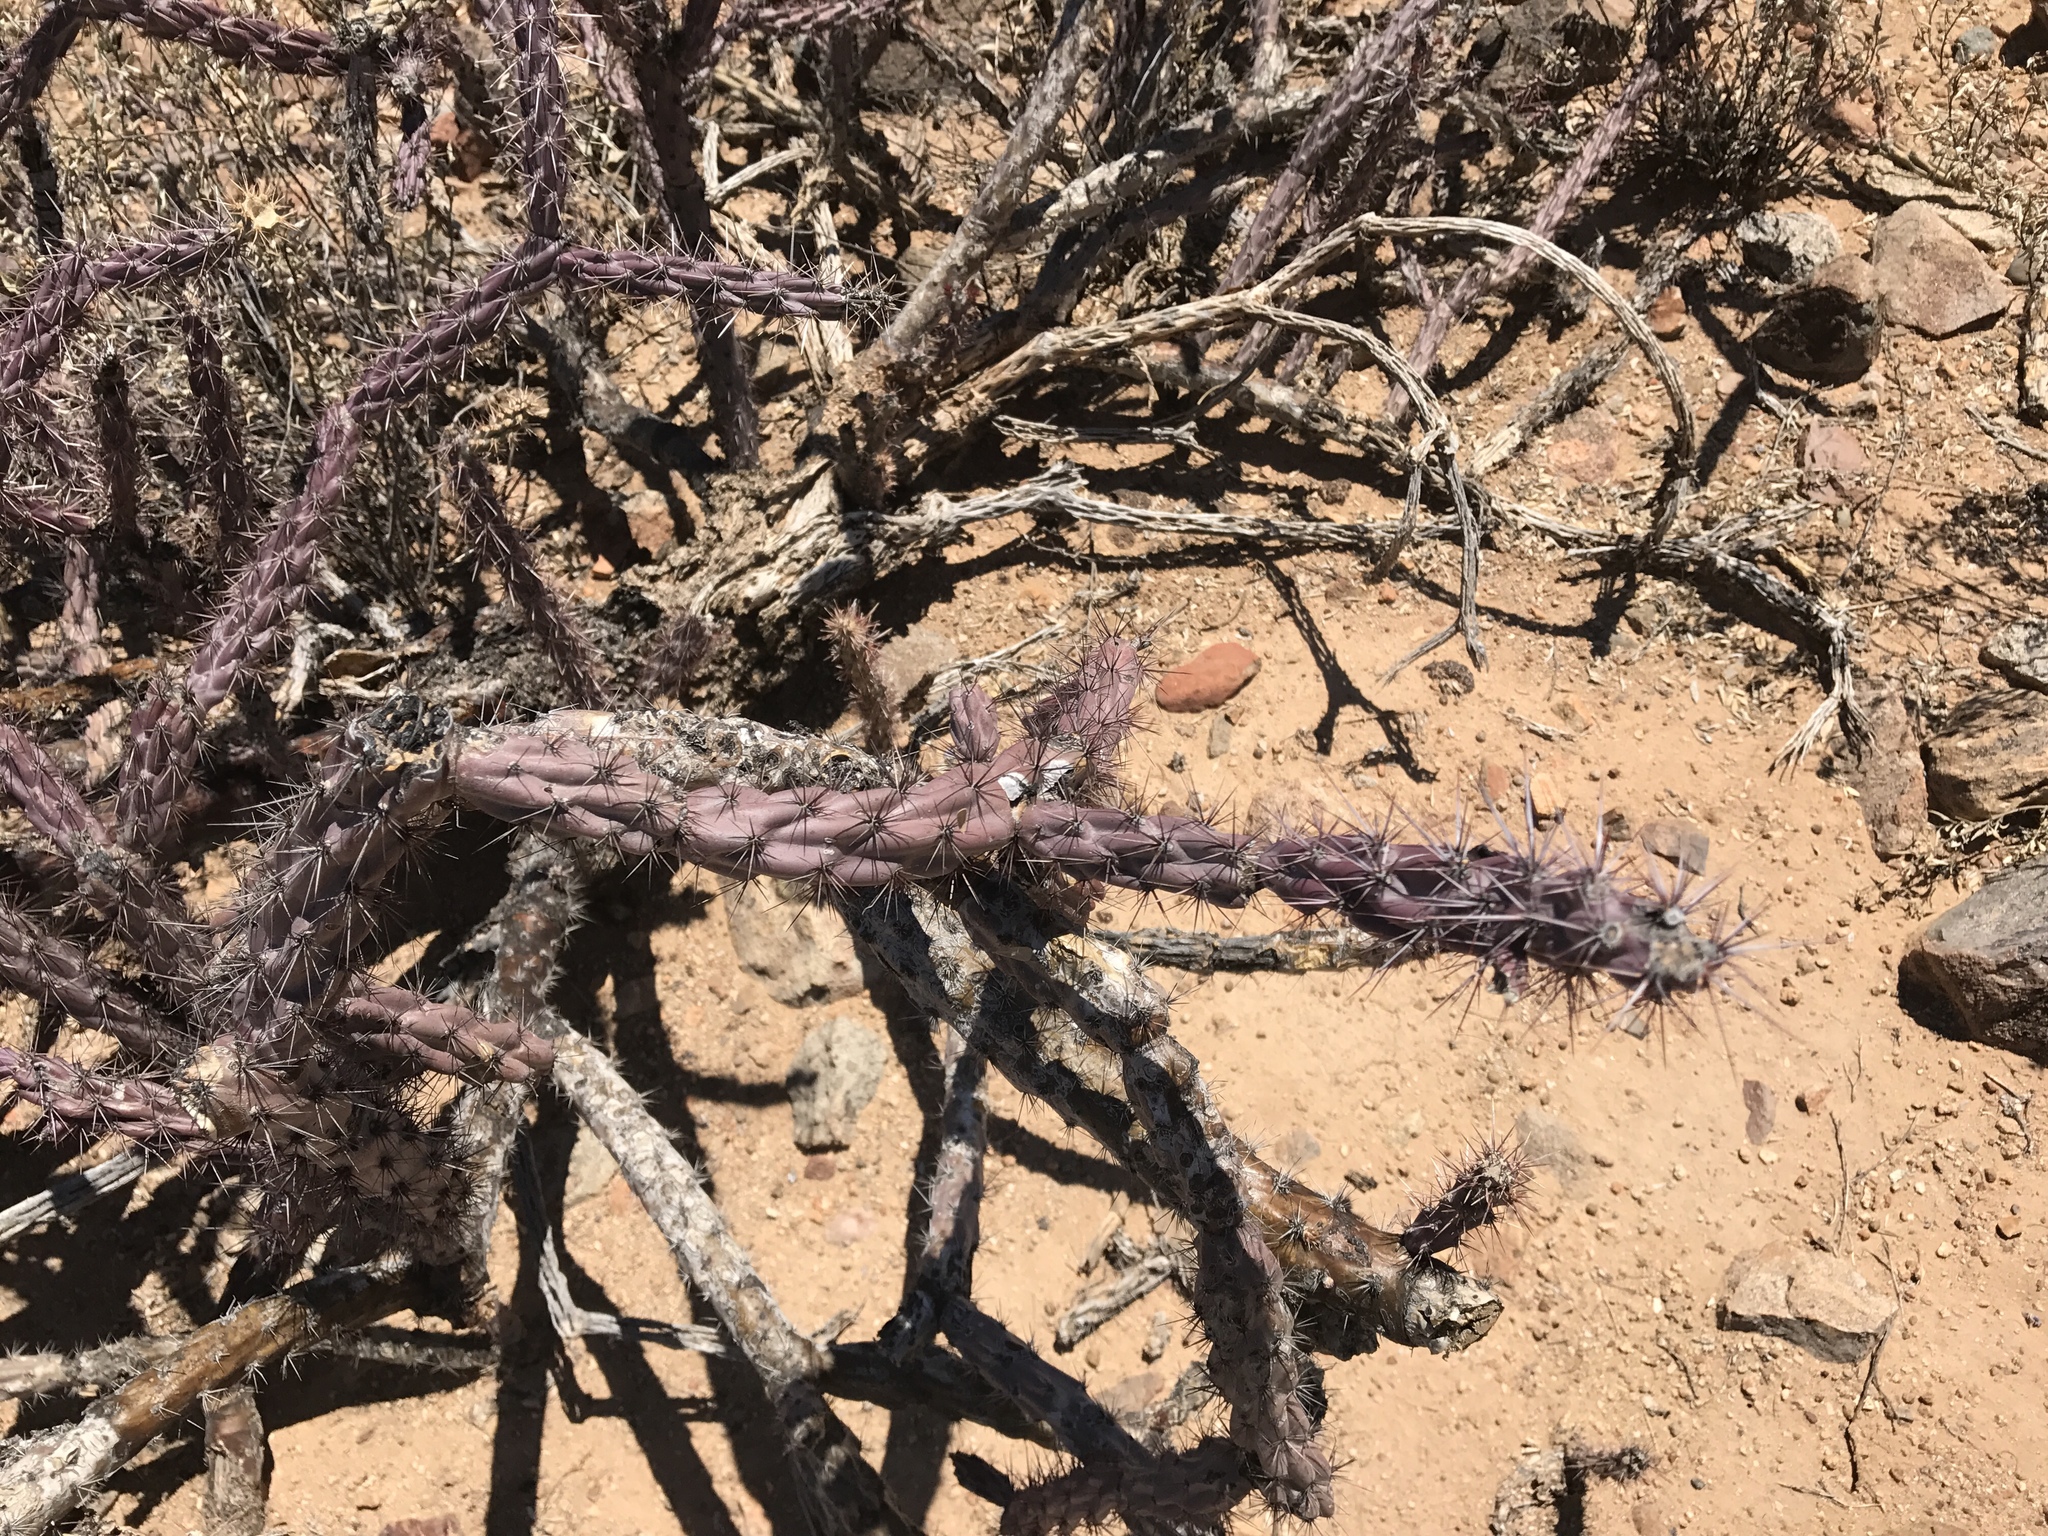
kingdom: Plantae
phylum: Tracheophyta
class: Magnoliopsida
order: Caryophyllales
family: Cactaceae
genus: Cylindropuntia
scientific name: Cylindropuntia thurberi
